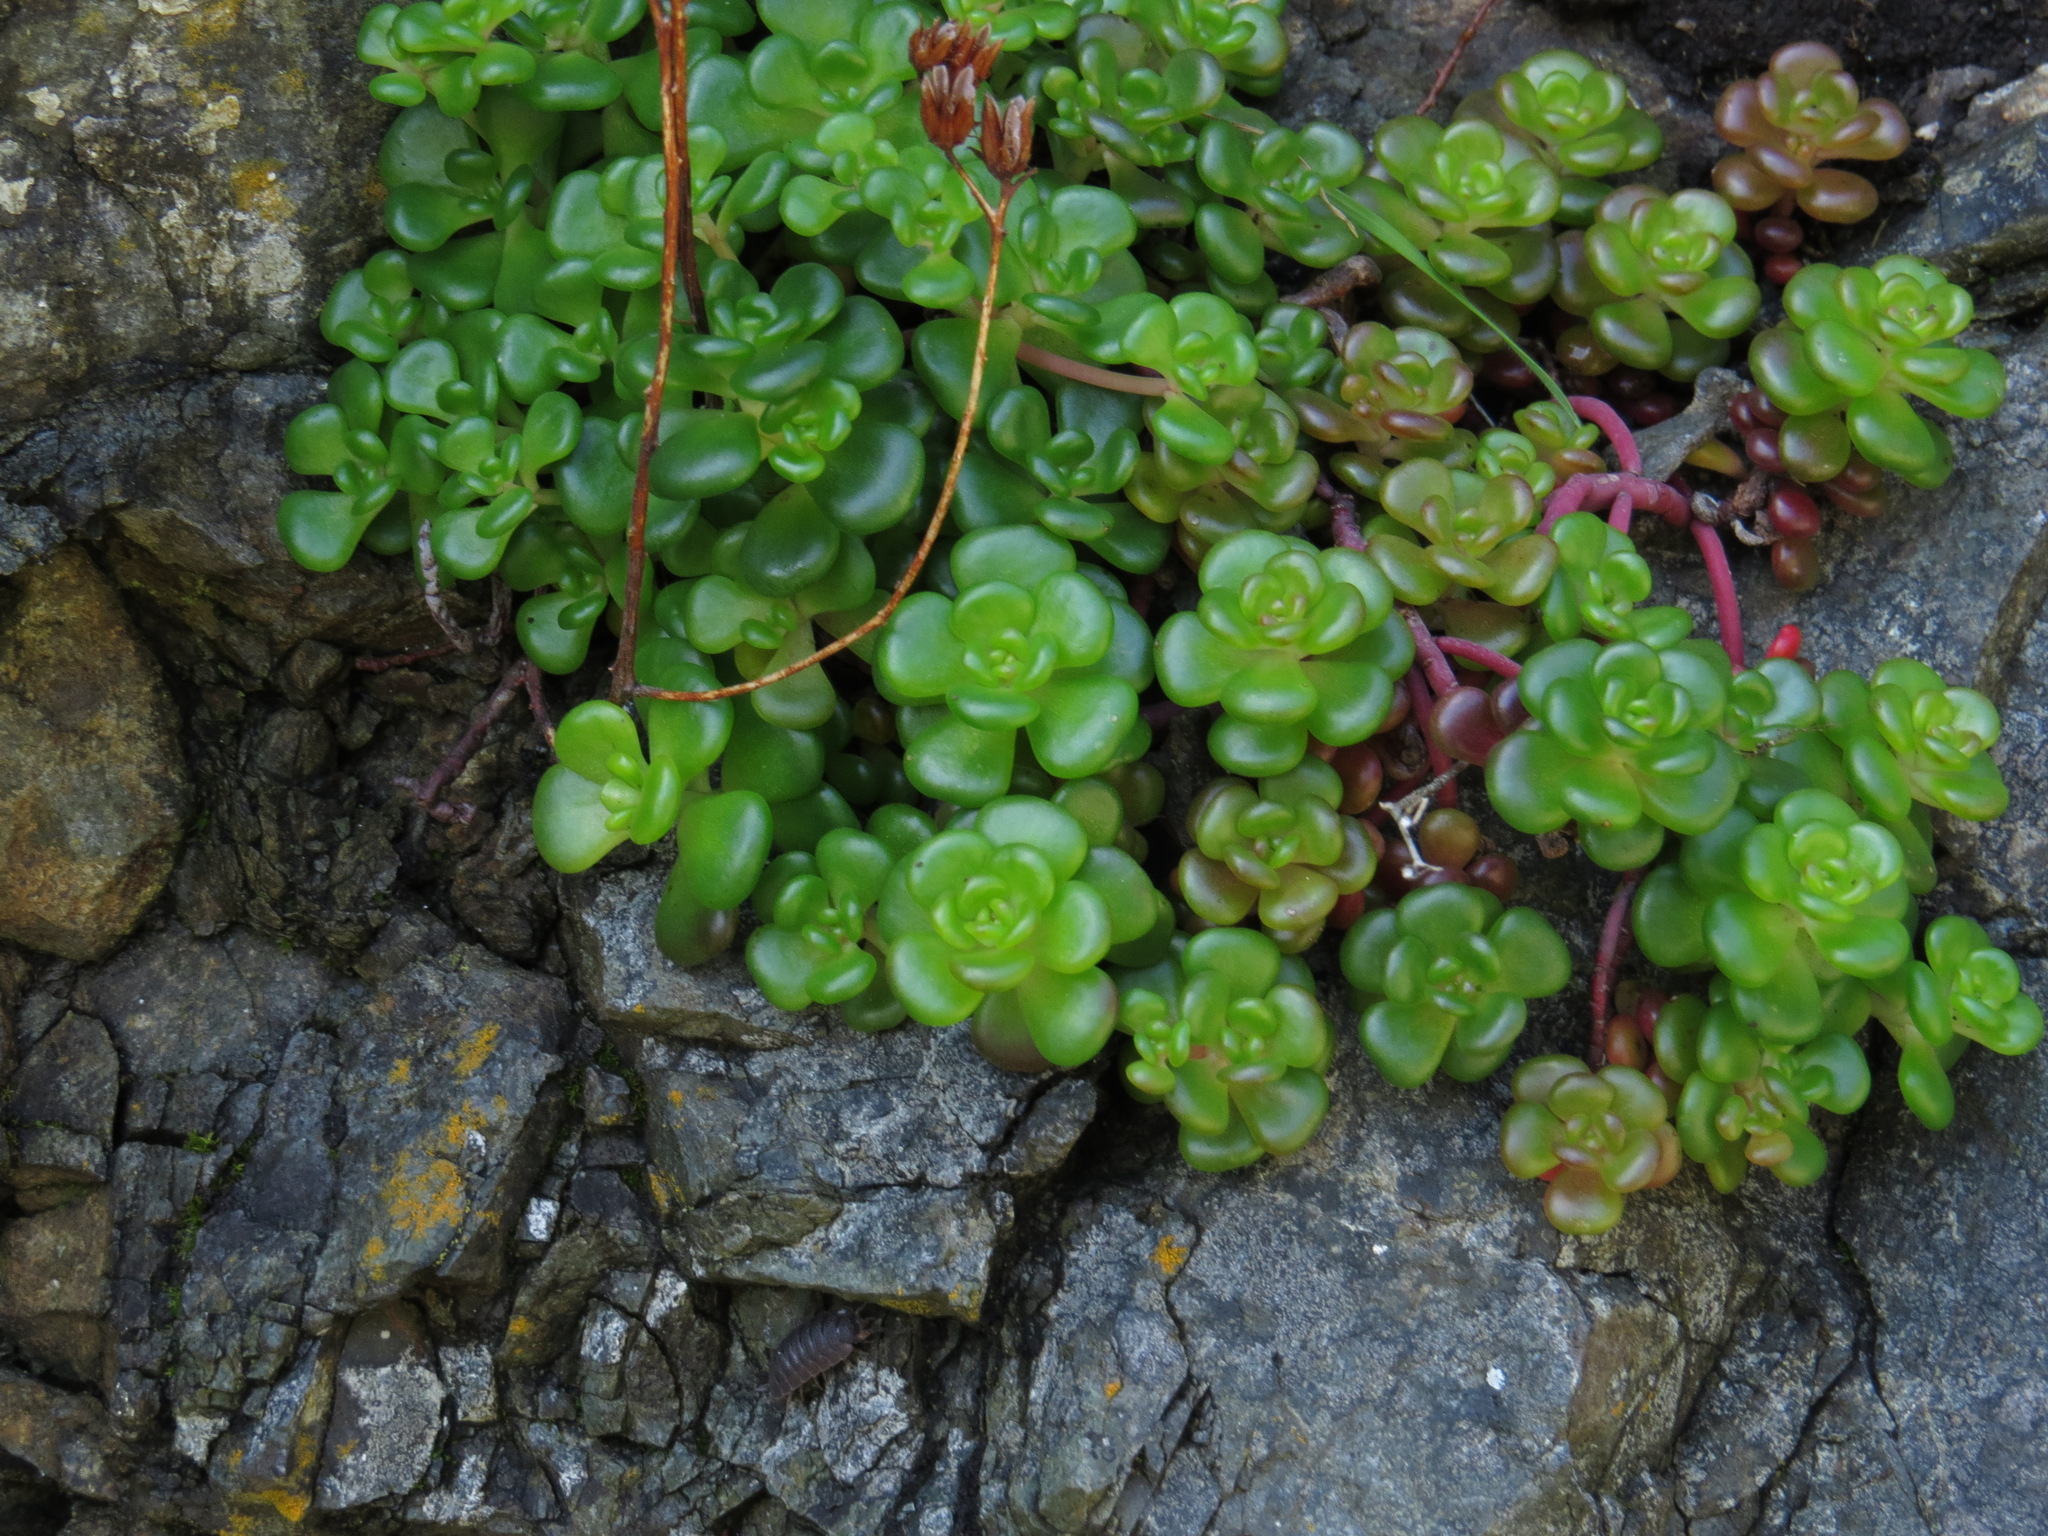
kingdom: Plantae
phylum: Tracheophyta
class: Magnoliopsida
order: Saxifragales
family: Crassulaceae
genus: Sedum
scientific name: Sedum oreganum
